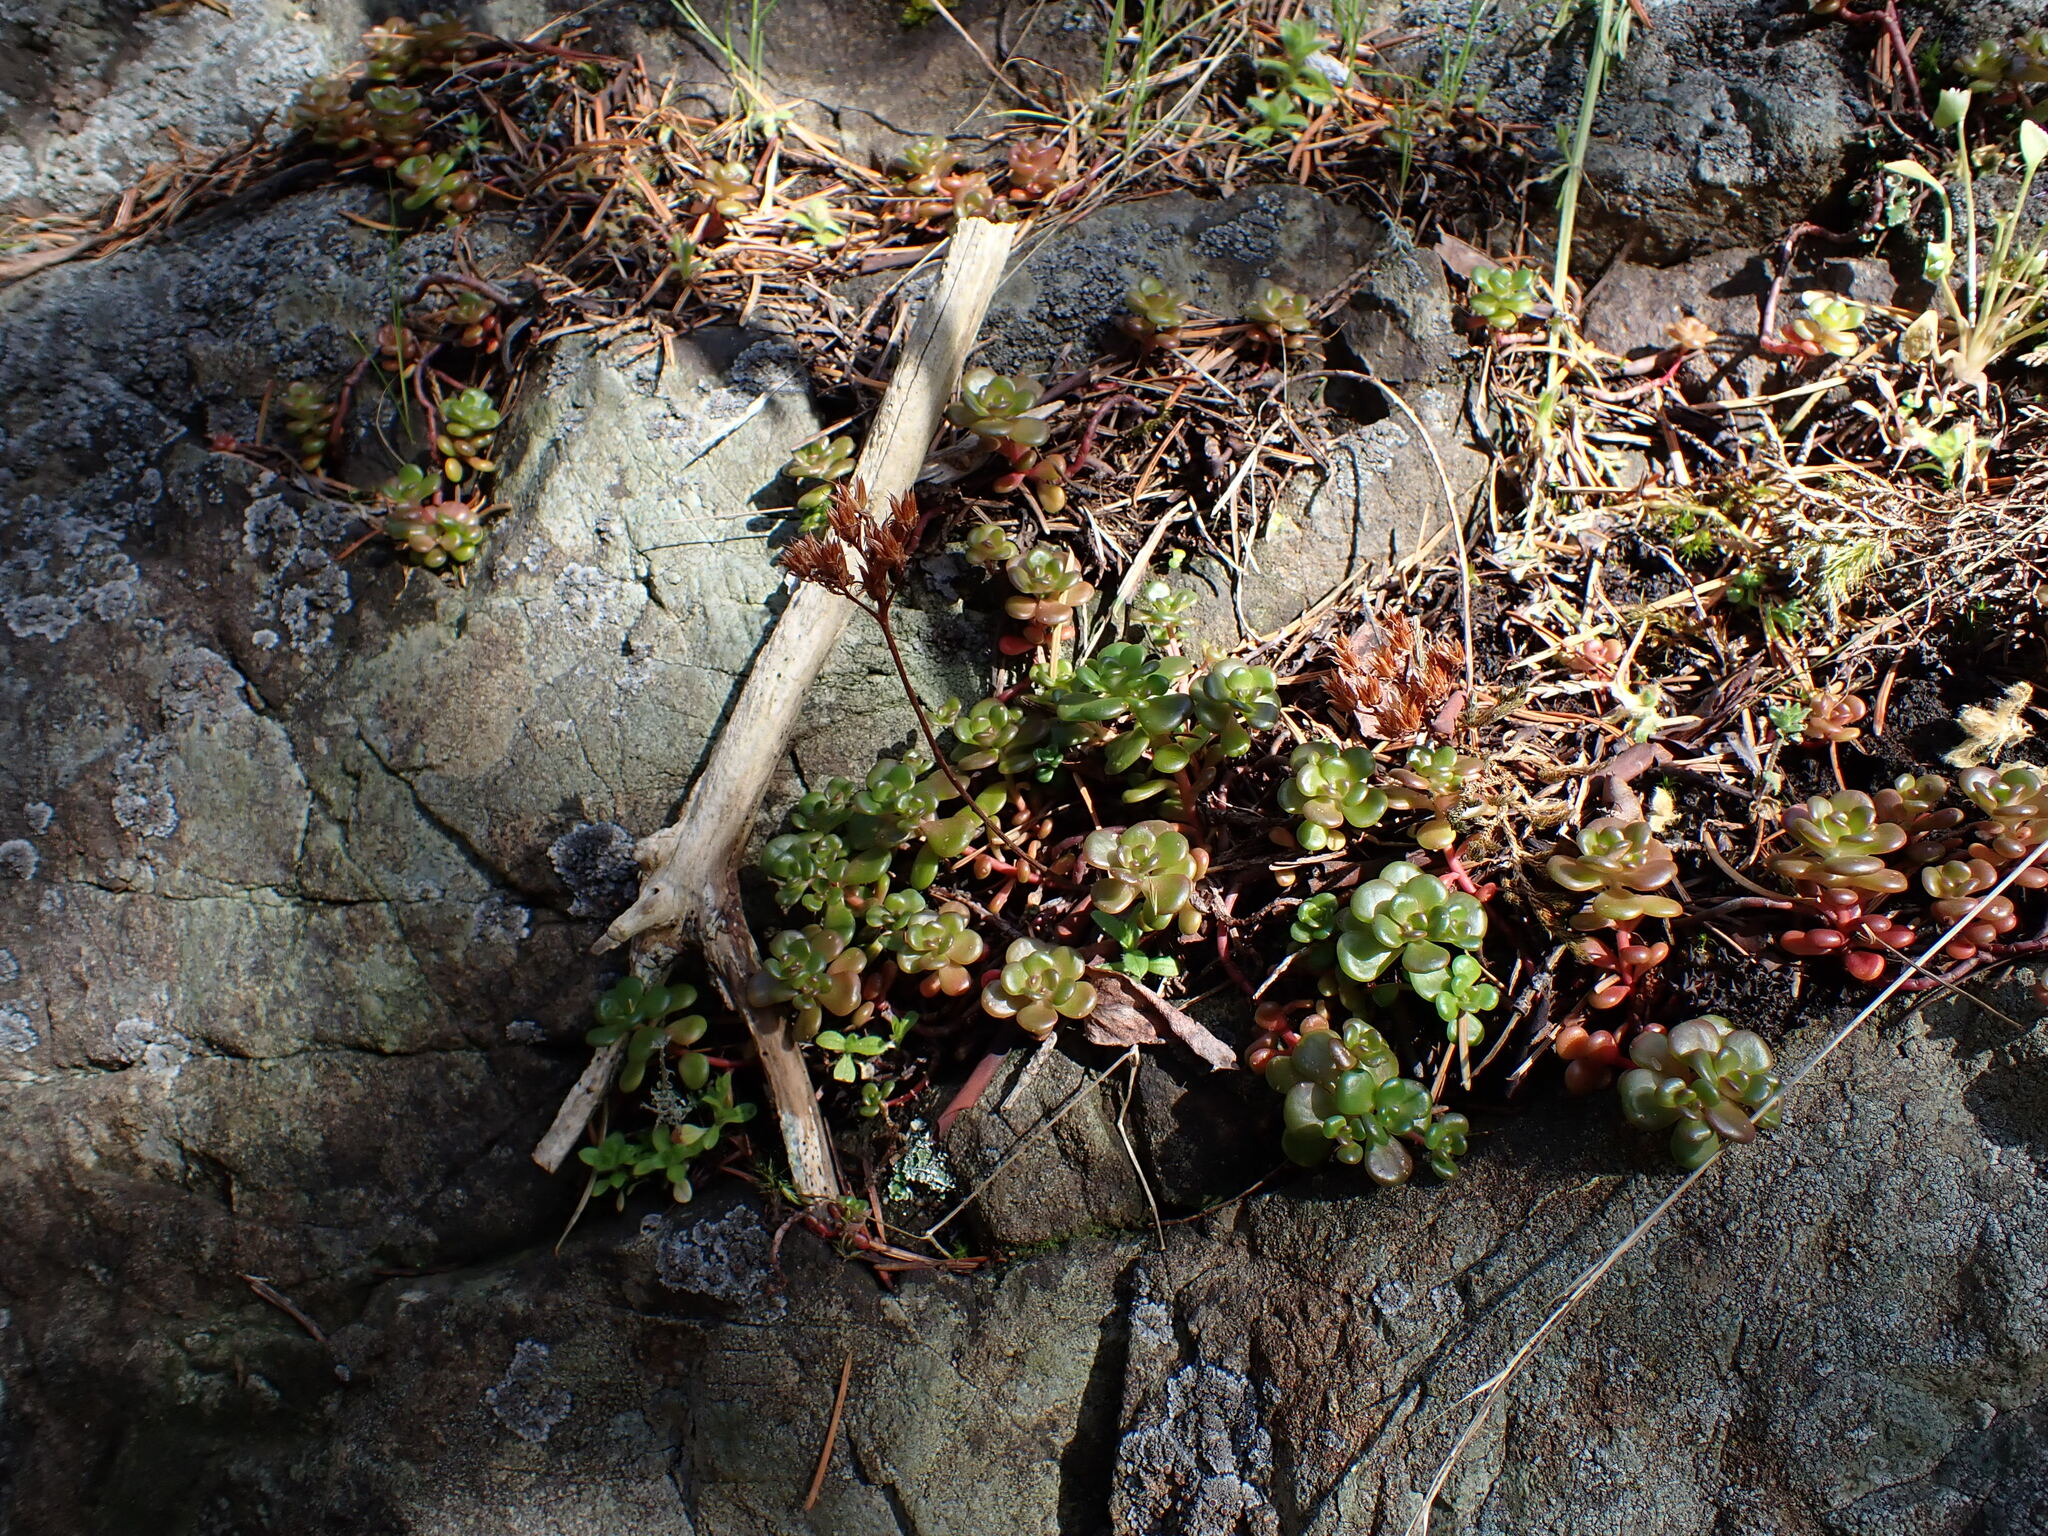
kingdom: Plantae
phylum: Tracheophyta
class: Magnoliopsida
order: Saxifragales
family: Crassulaceae
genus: Sedum
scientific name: Sedum oreganum
